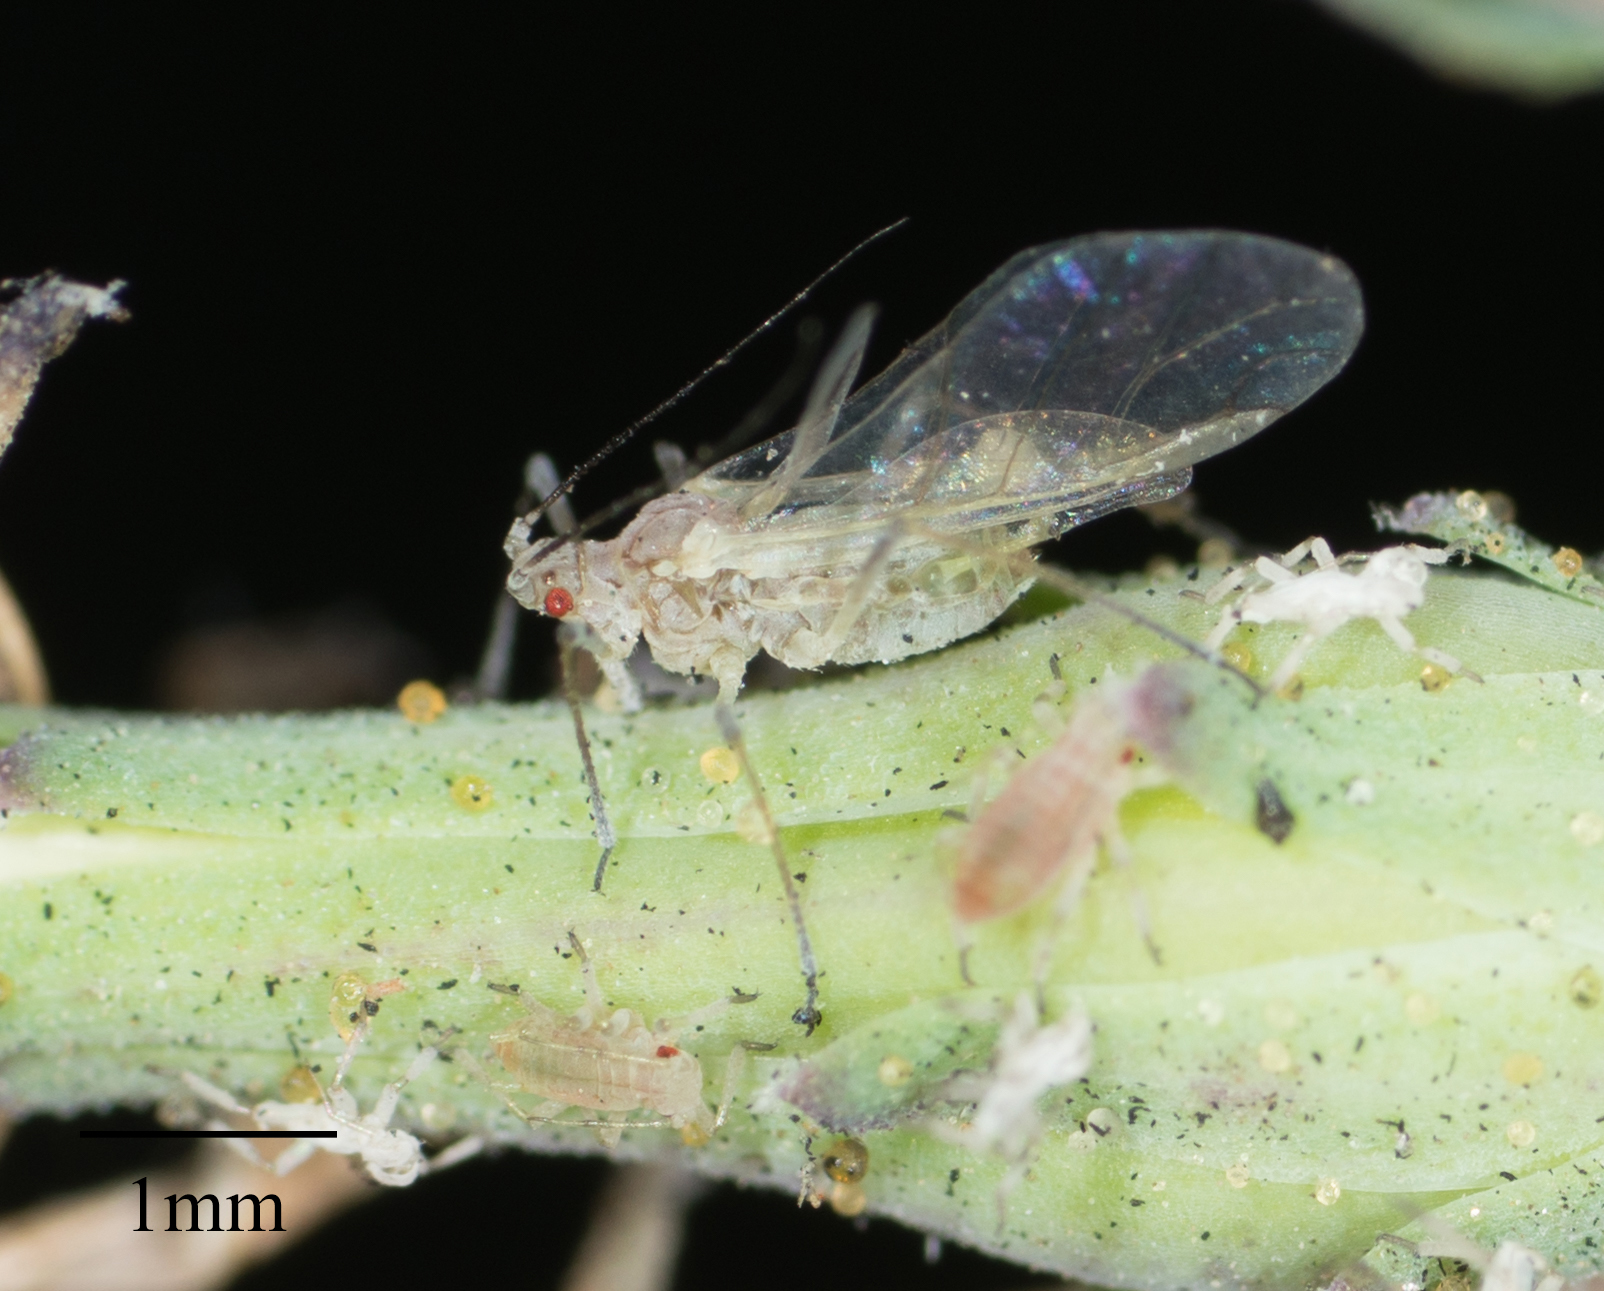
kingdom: Animalia
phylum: Arthropoda
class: Insecta
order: Hemiptera
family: Aphididae
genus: Acyrthosiphon
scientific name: Acyrthosiphon lactucae
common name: Aphid
